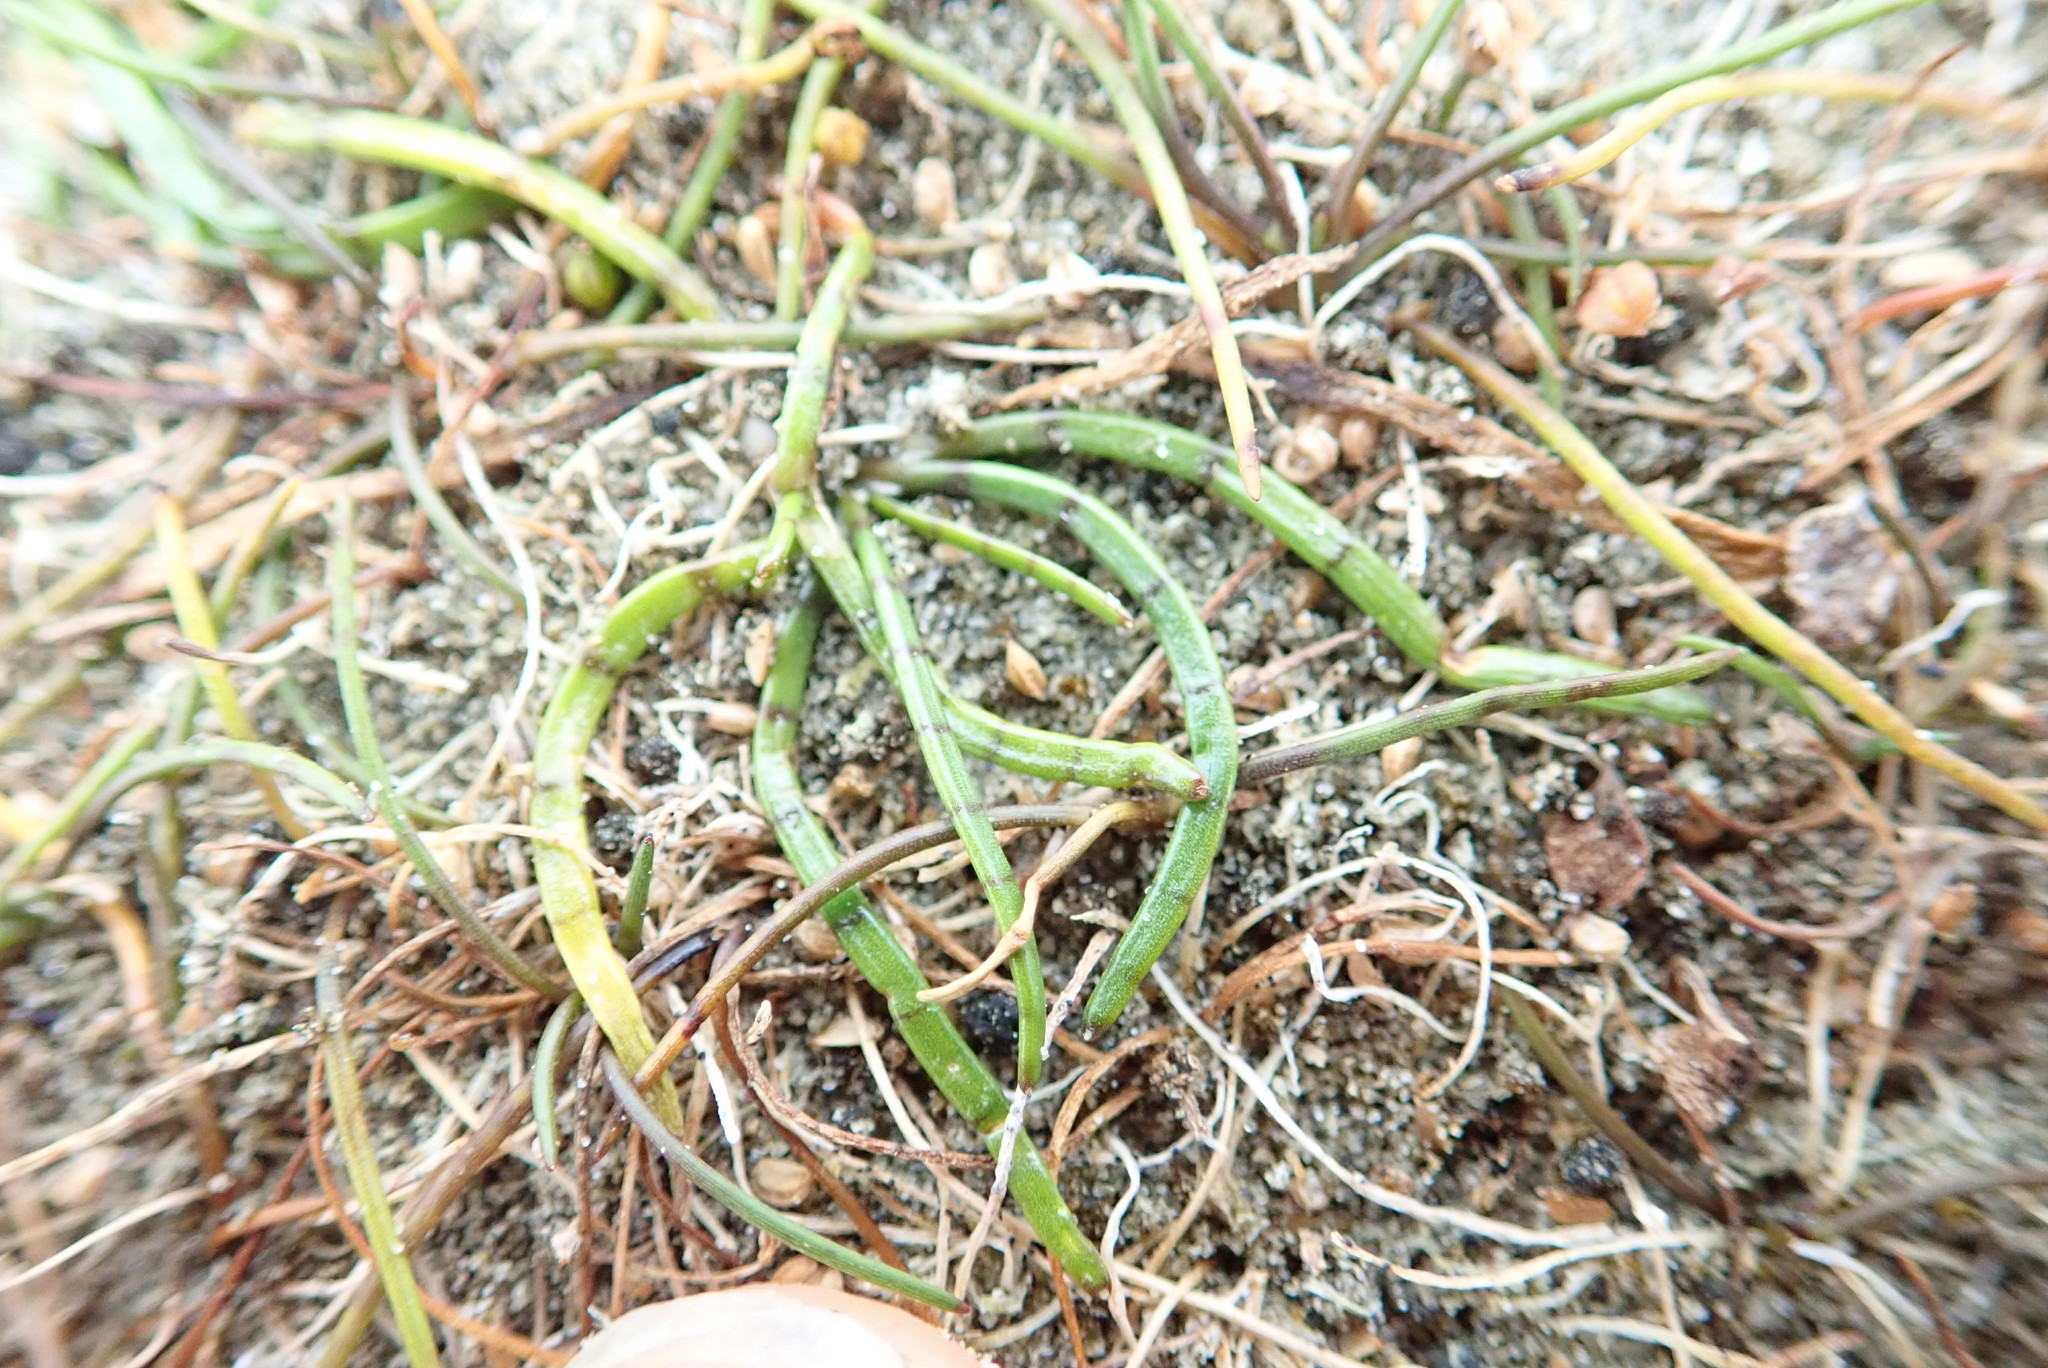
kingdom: Plantae
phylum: Tracheophyta
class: Magnoliopsida
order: Apiales
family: Apiaceae
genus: Lilaeopsis
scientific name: Lilaeopsis novae-zelandiae
